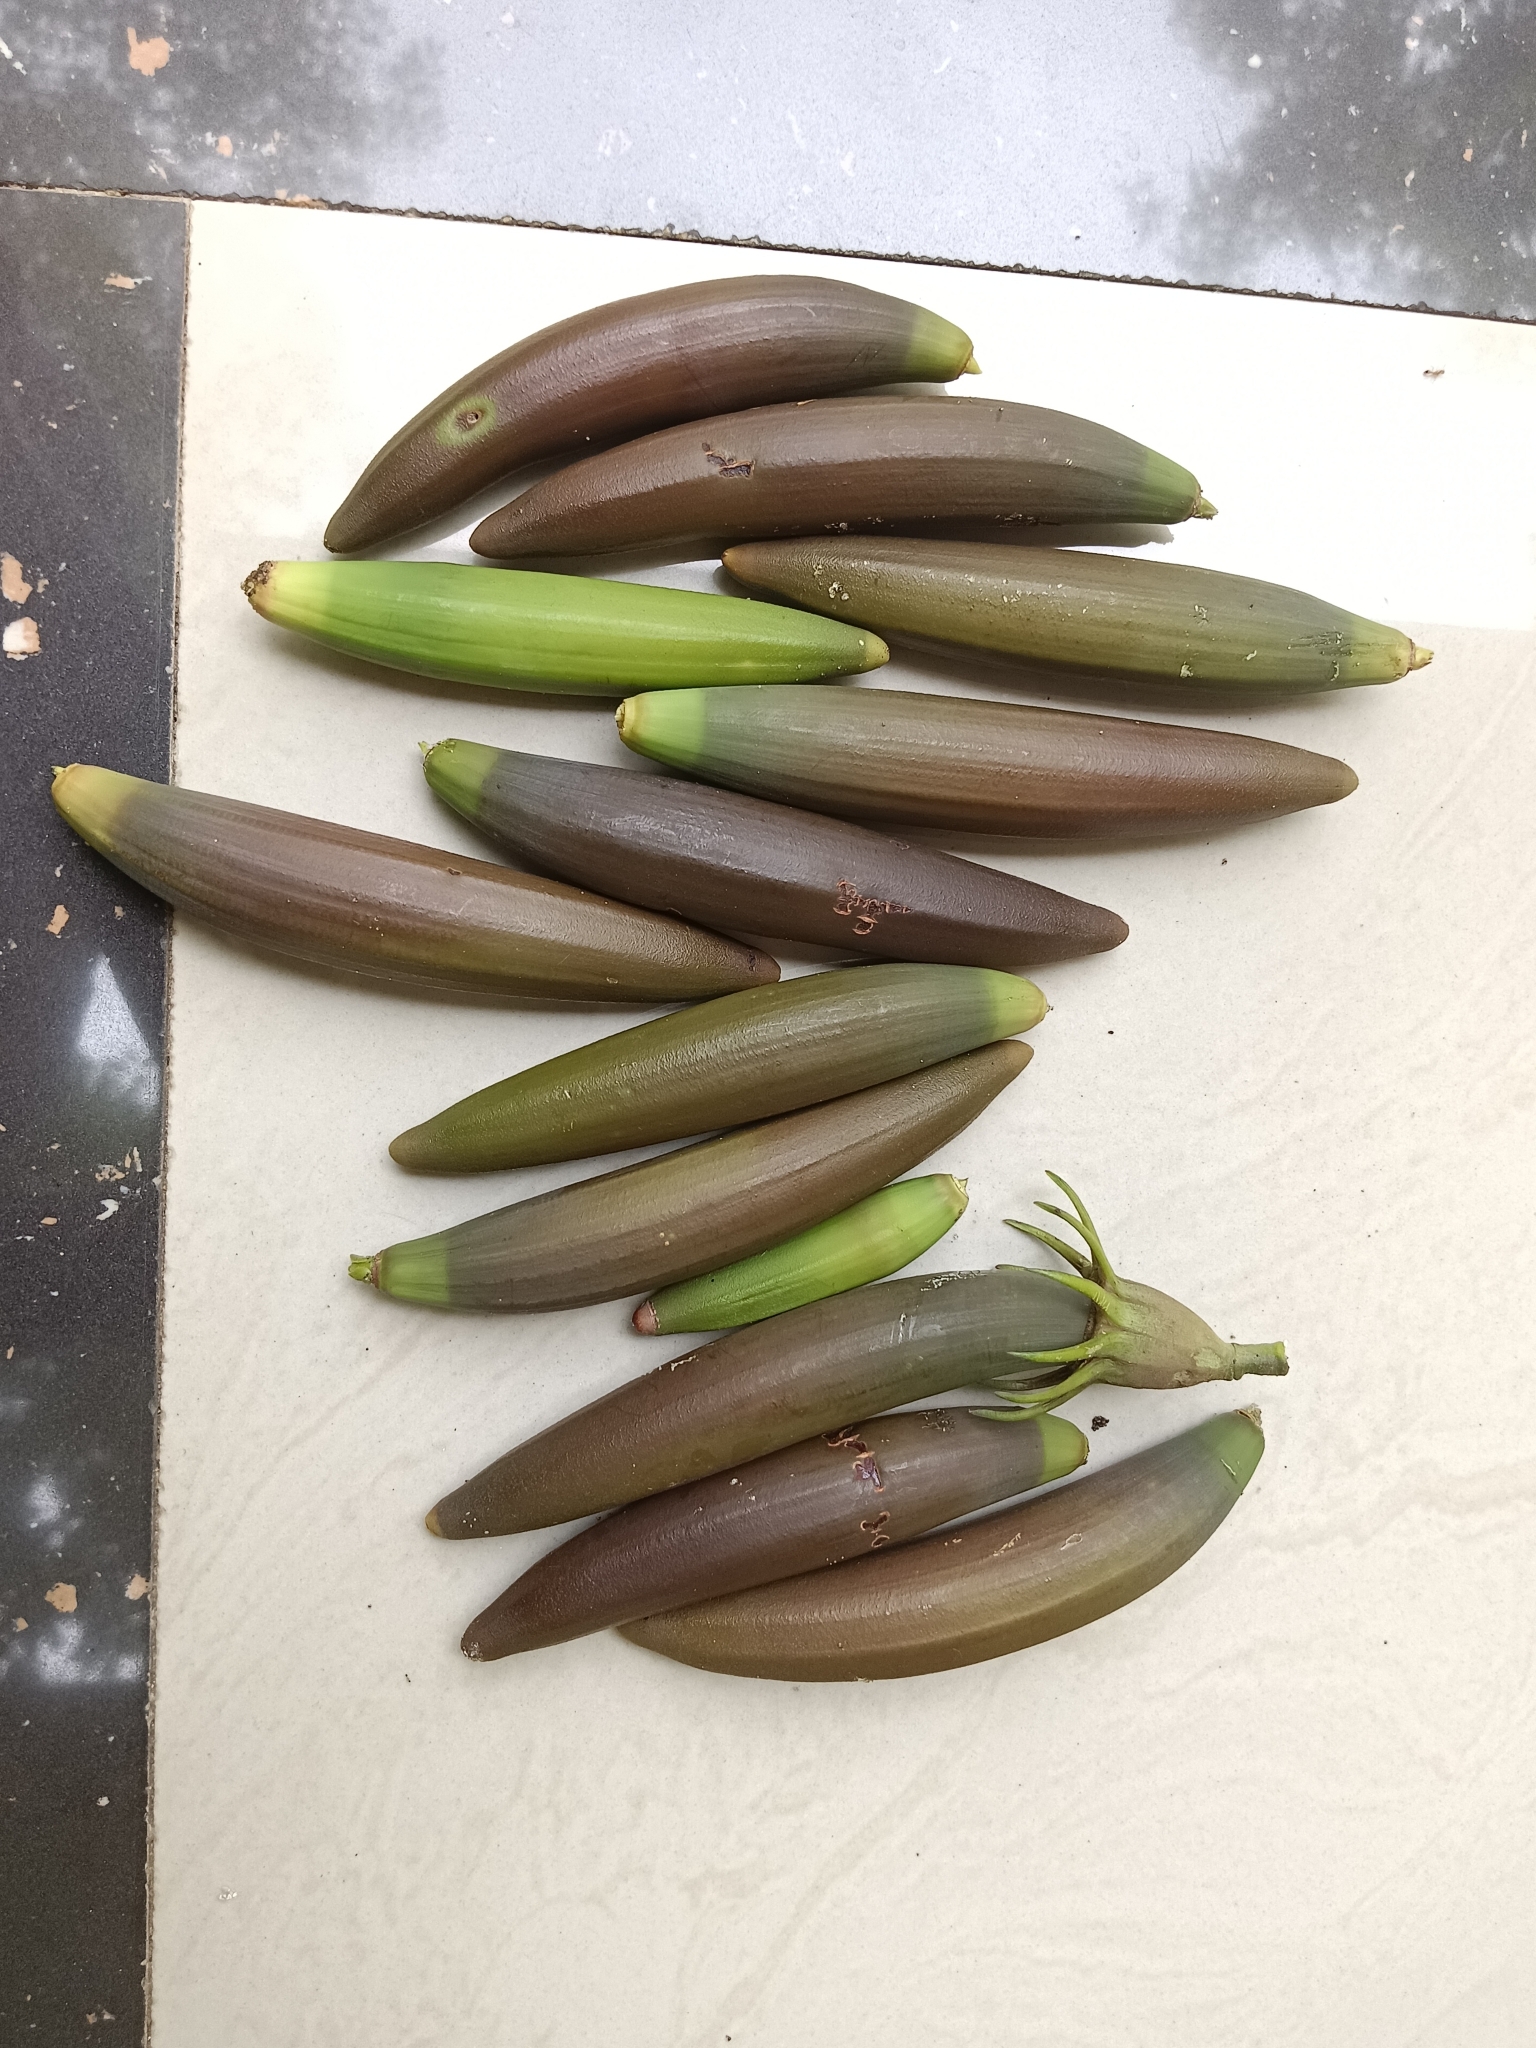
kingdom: Plantae
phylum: Tracheophyta
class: Magnoliopsida
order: Malpighiales
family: Rhizophoraceae
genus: Bruguiera
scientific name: Bruguiera gymnorhiza
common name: Oriental mangrove
